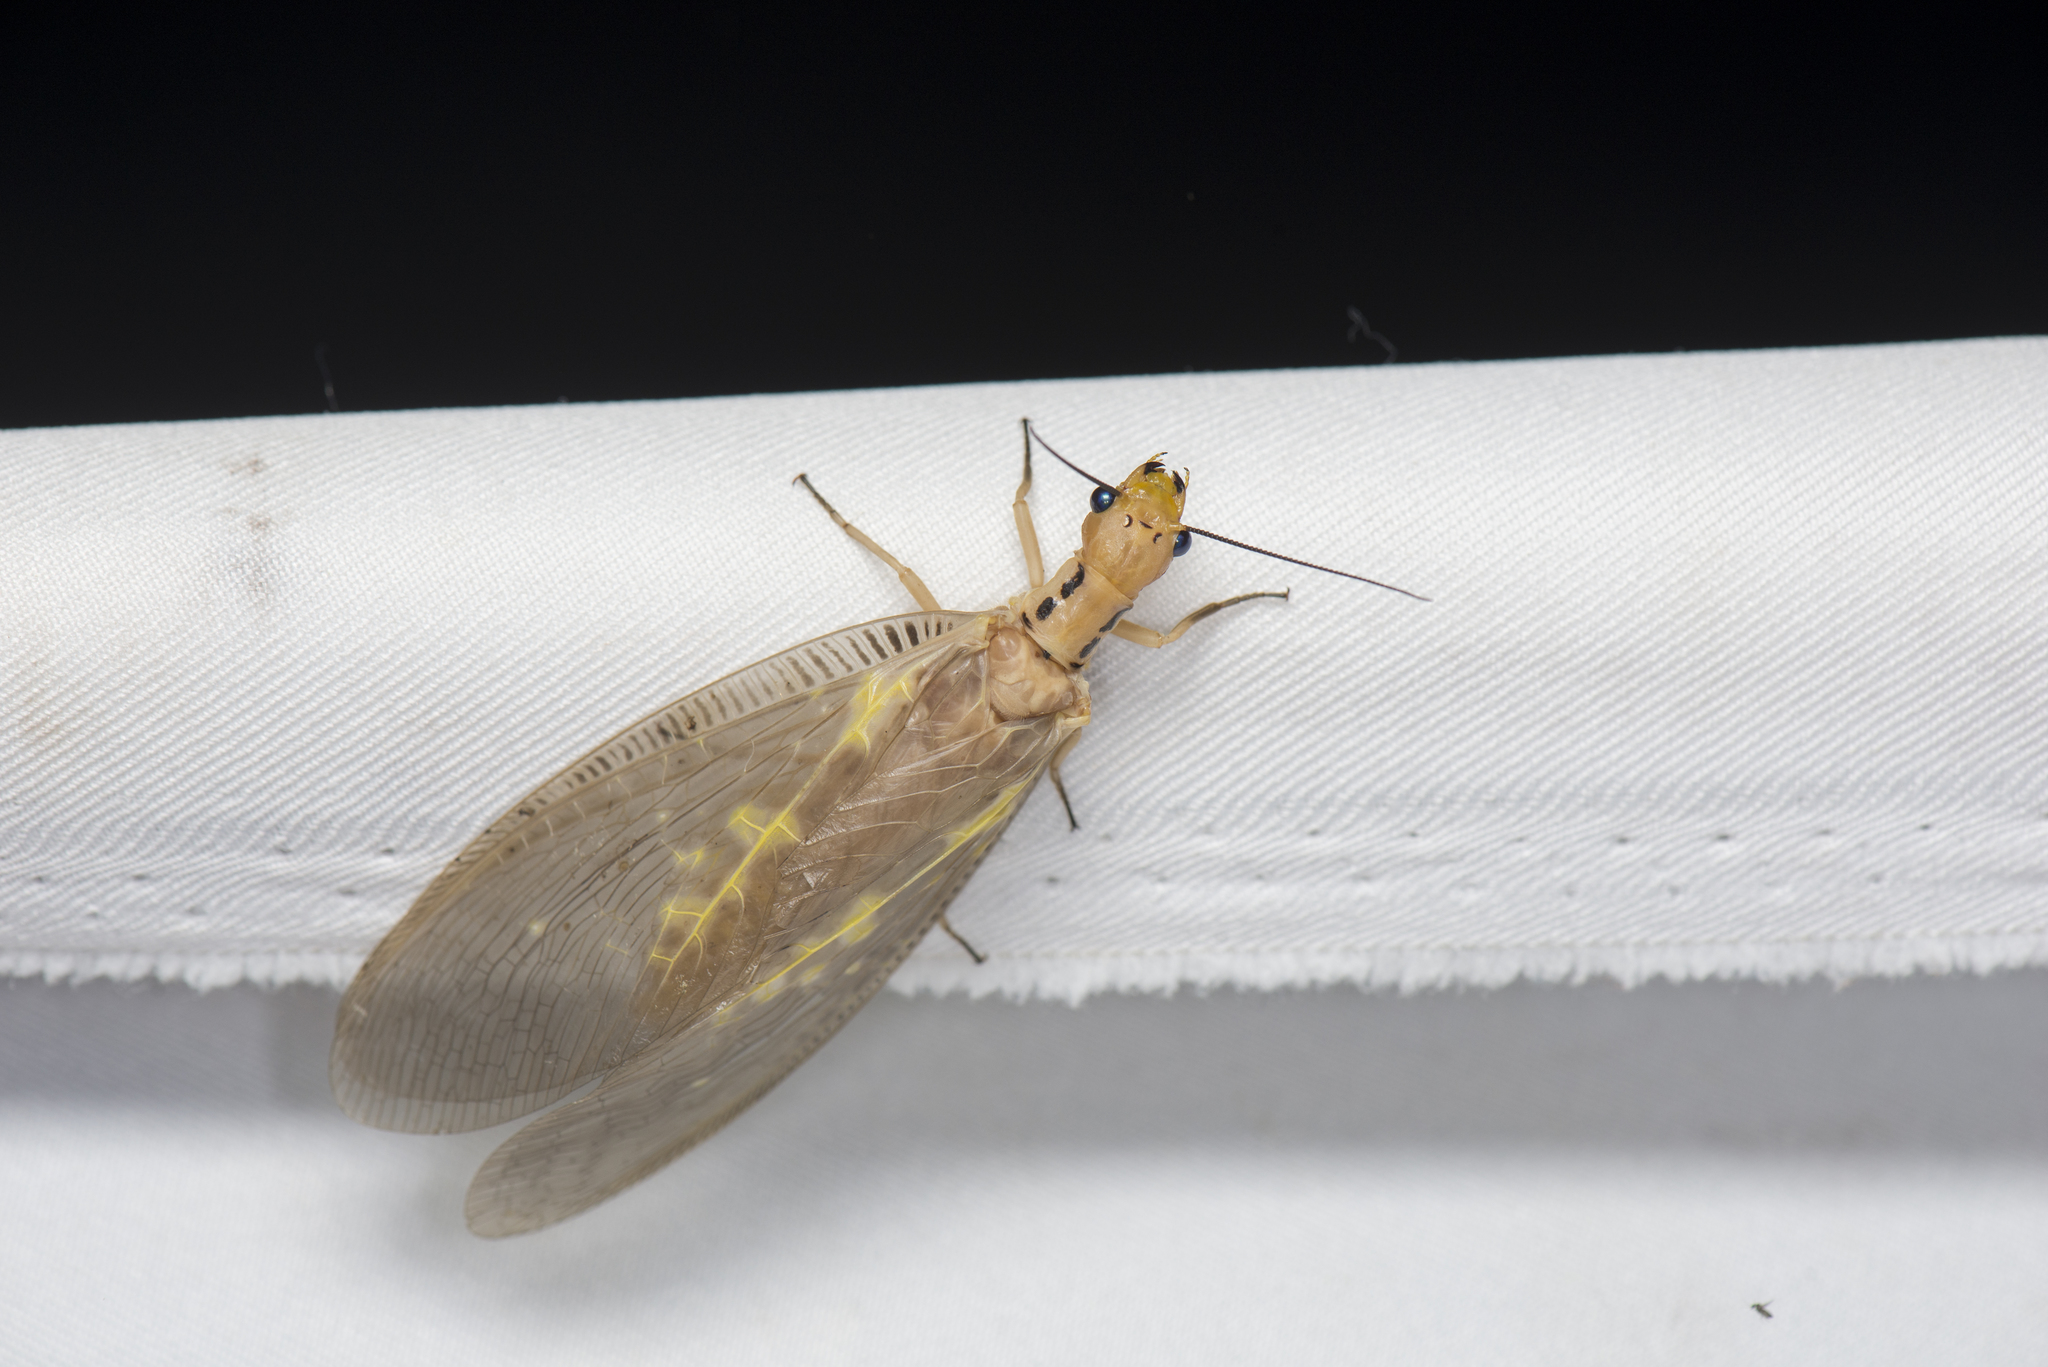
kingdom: Animalia
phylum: Arthropoda
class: Insecta
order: Megaloptera
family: Corydalidae
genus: Protohermes
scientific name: Protohermes costalis
